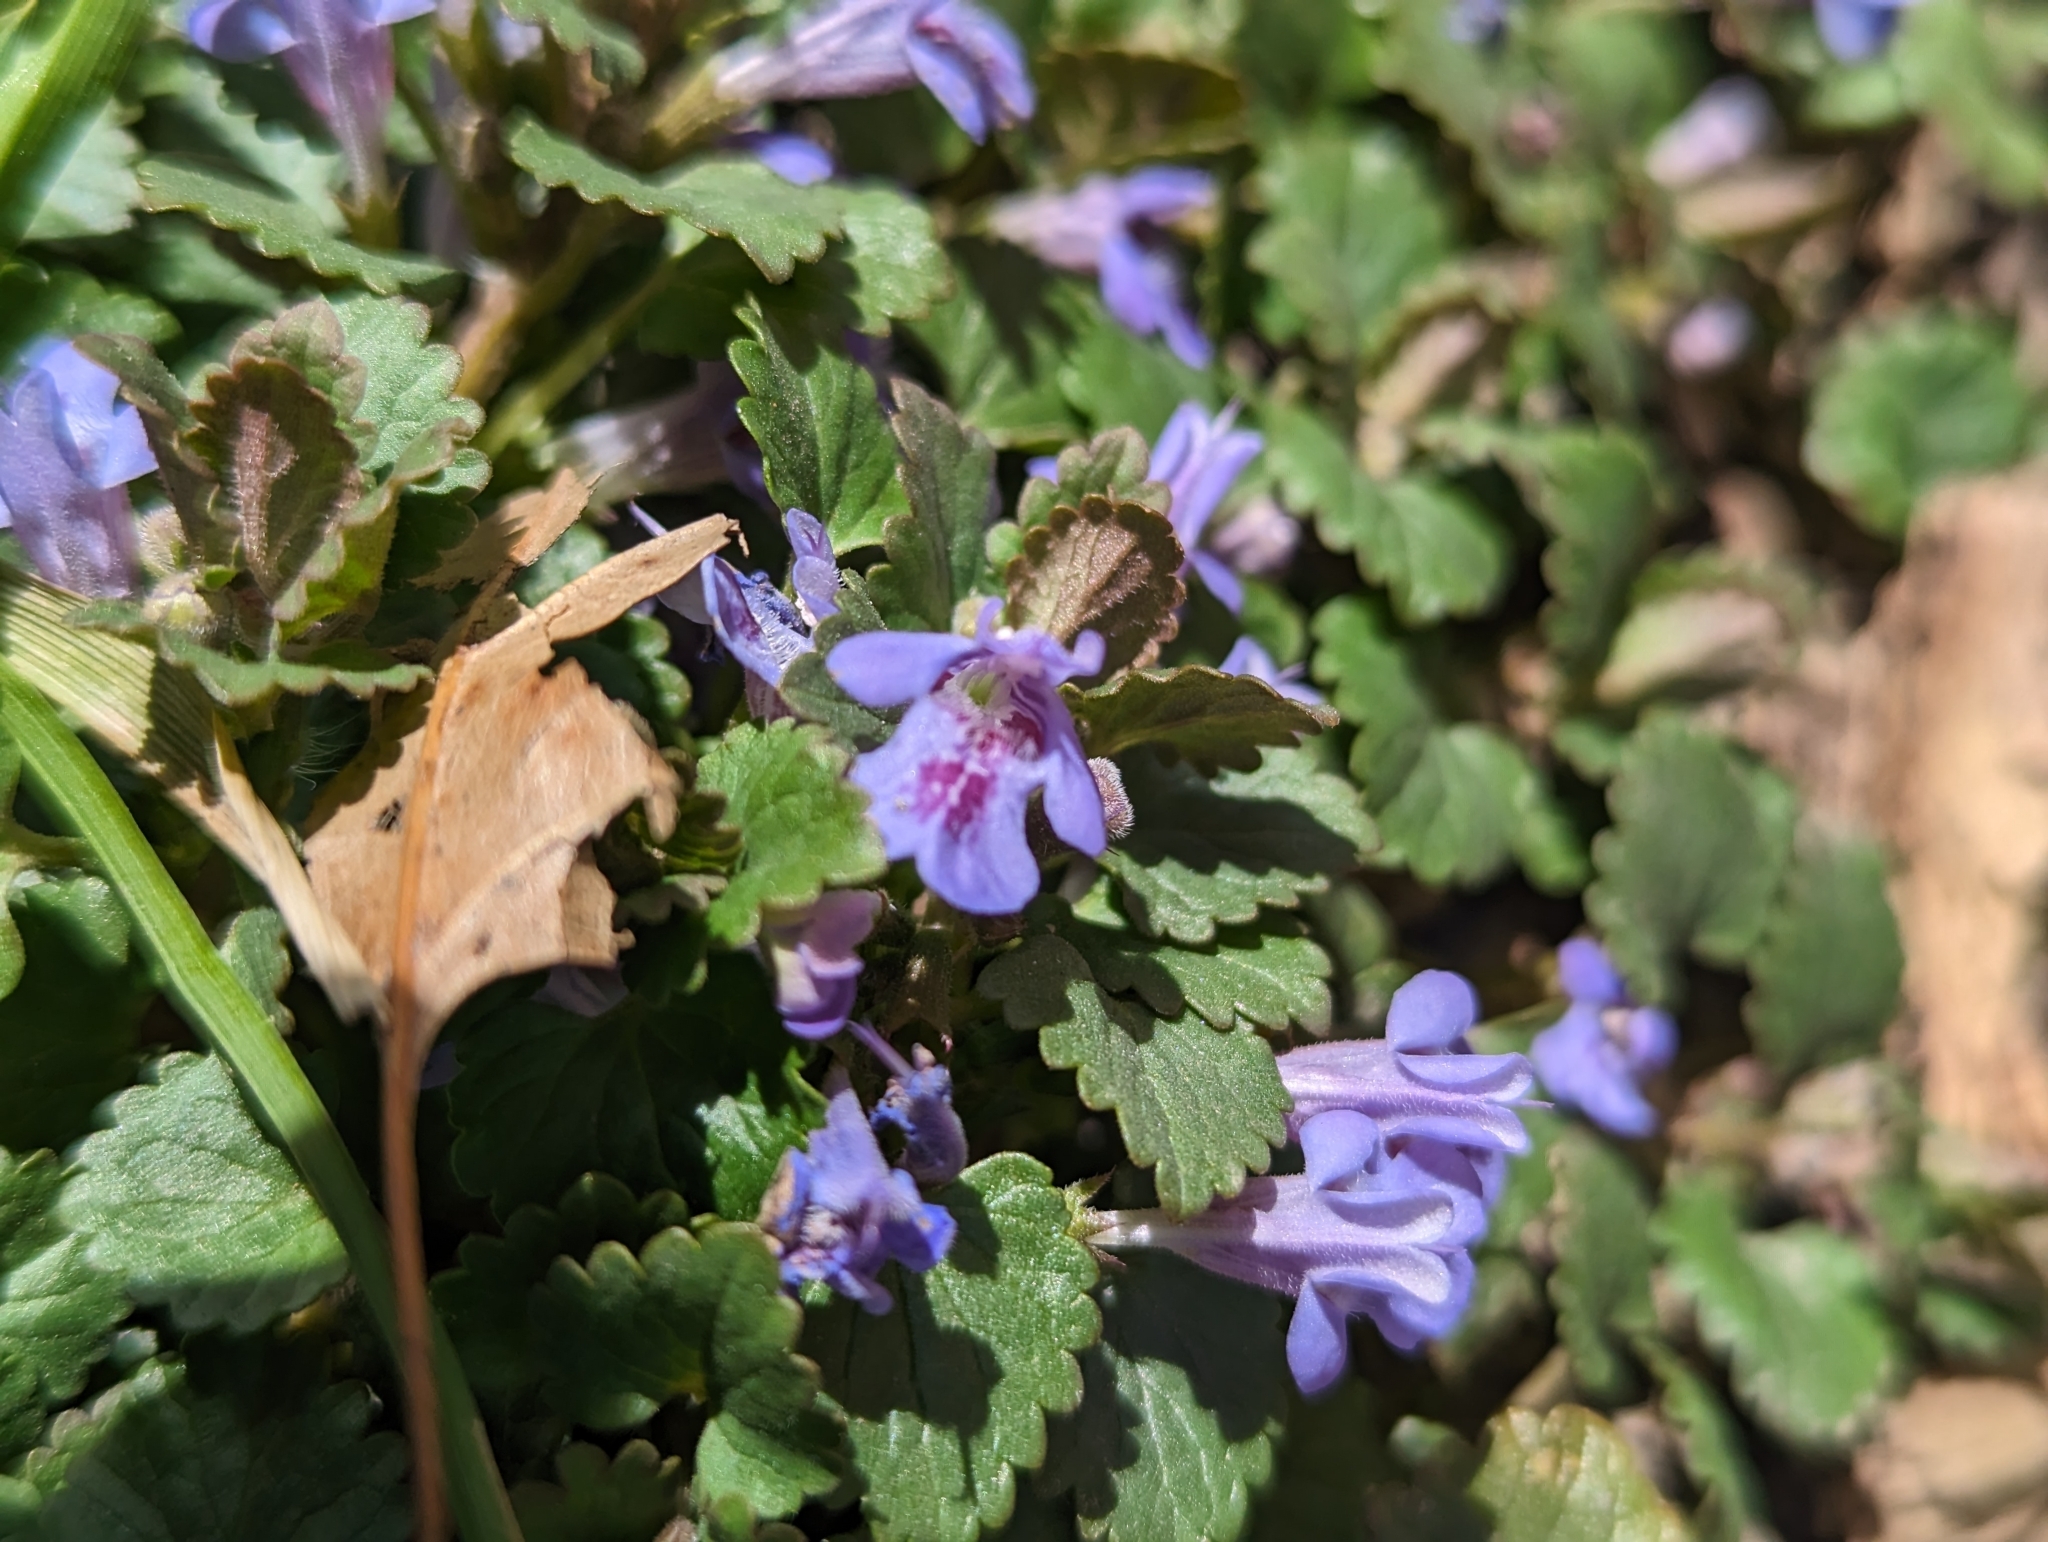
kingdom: Plantae
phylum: Tracheophyta
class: Magnoliopsida
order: Lamiales
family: Lamiaceae
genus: Glechoma
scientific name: Glechoma hederacea
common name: Ground ivy
